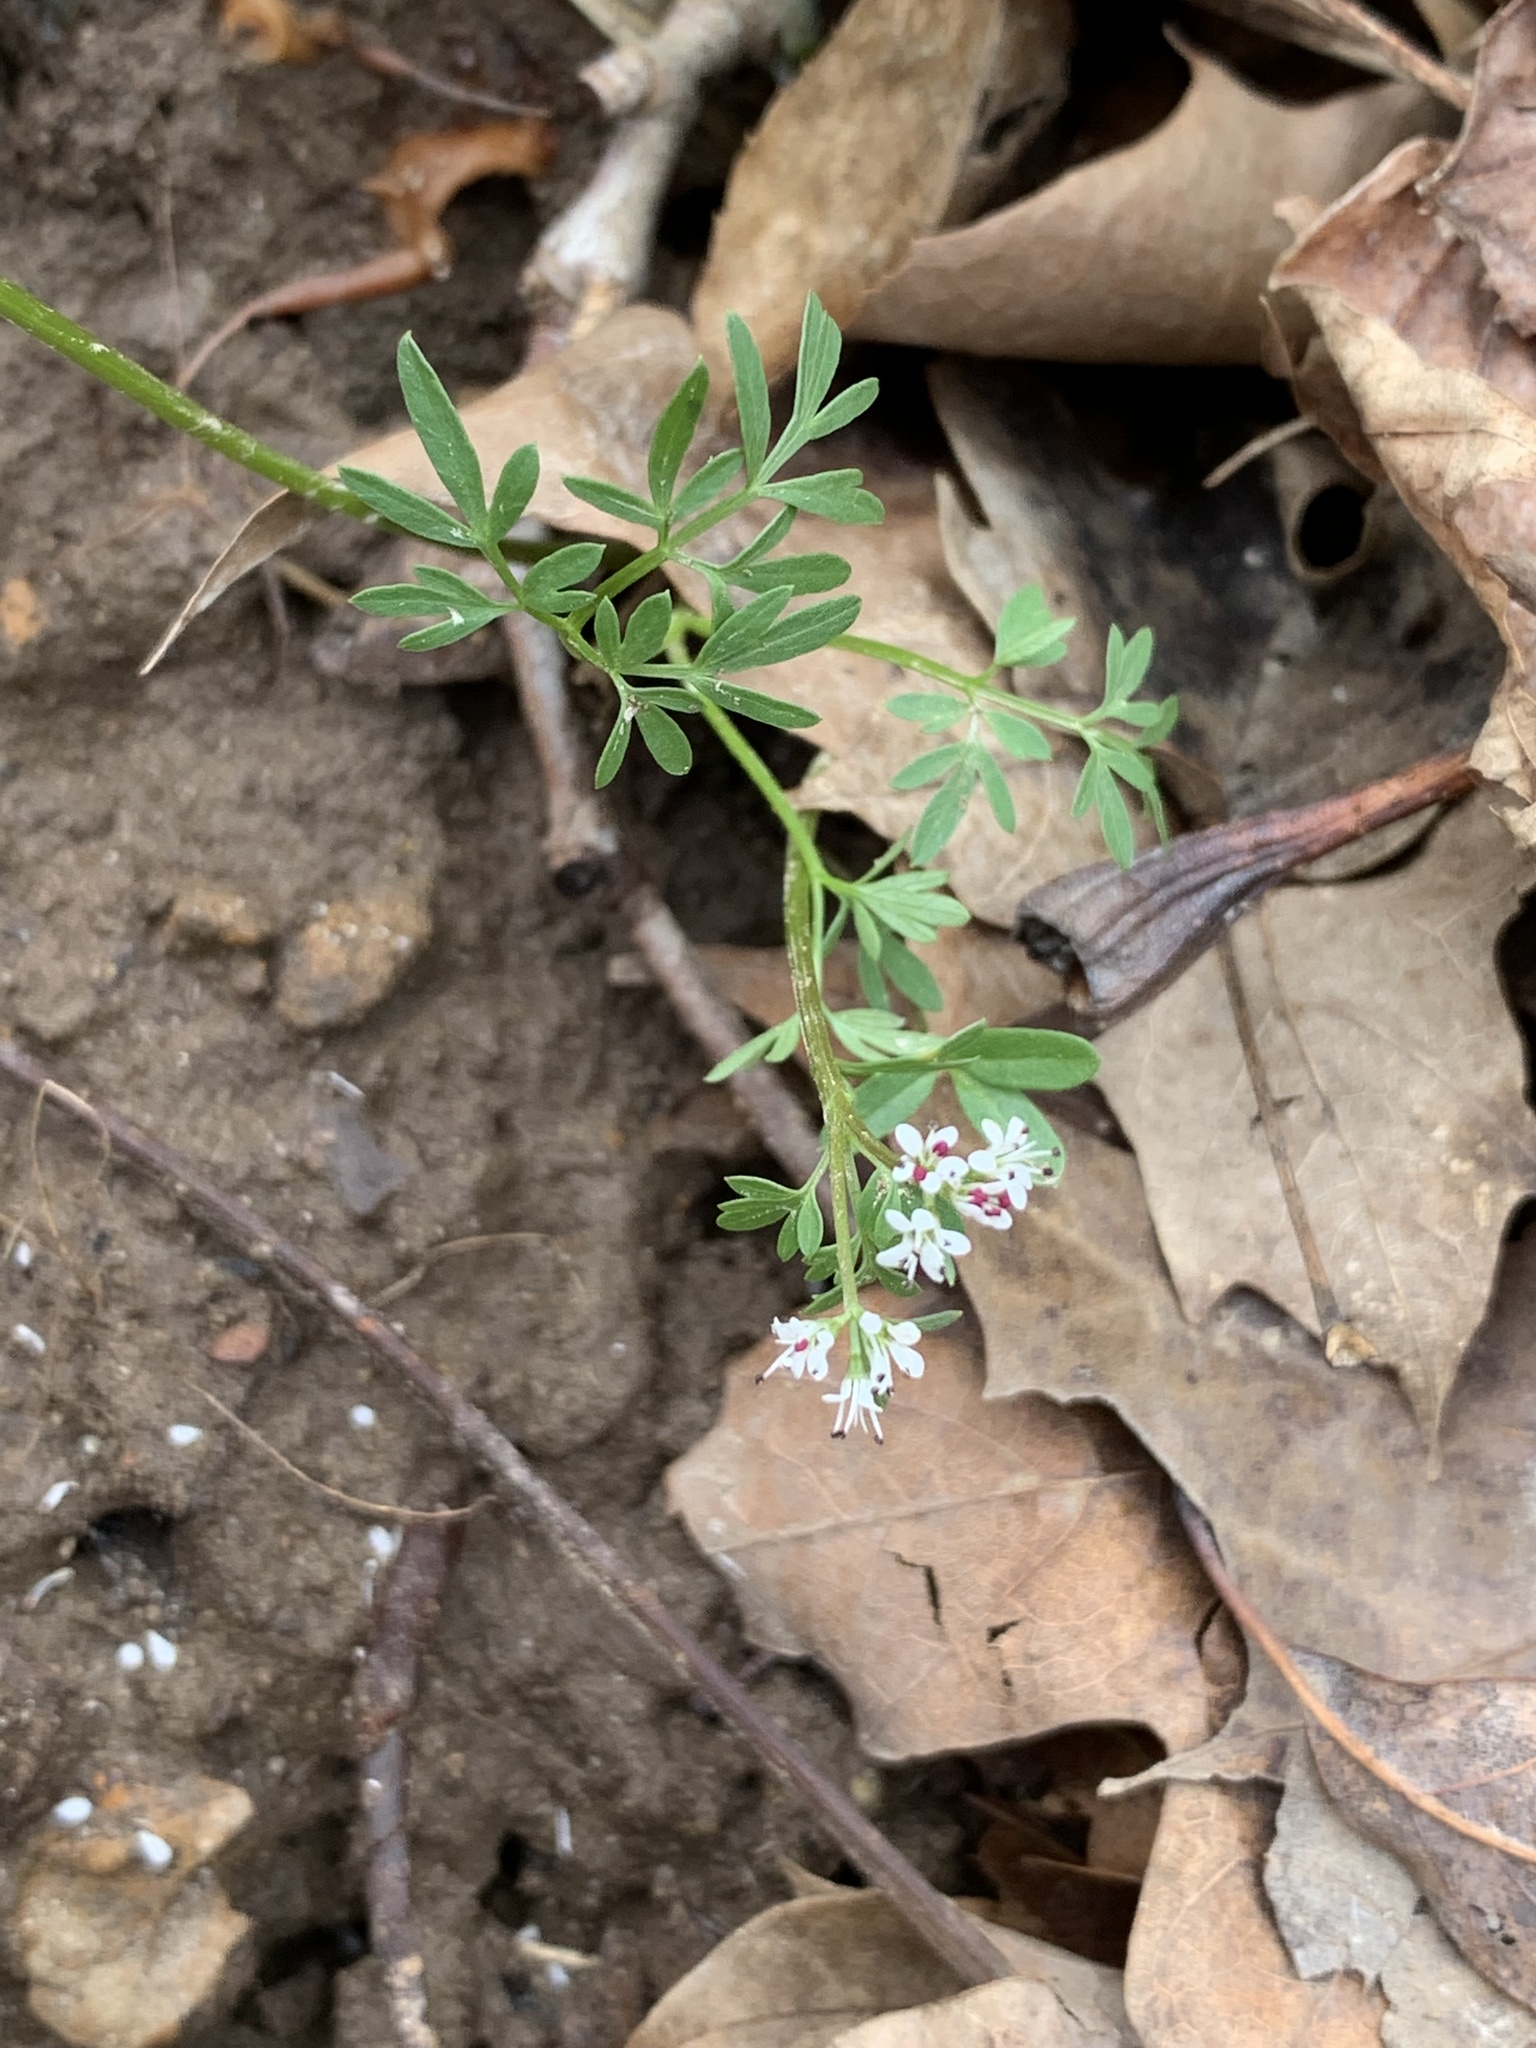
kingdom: Plantae
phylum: Tracheophyta
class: Magnoliopsida
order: Apiales
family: Apiaceae
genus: Erigenia
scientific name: Erigenia bulbosa
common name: Pepper-and-salt
